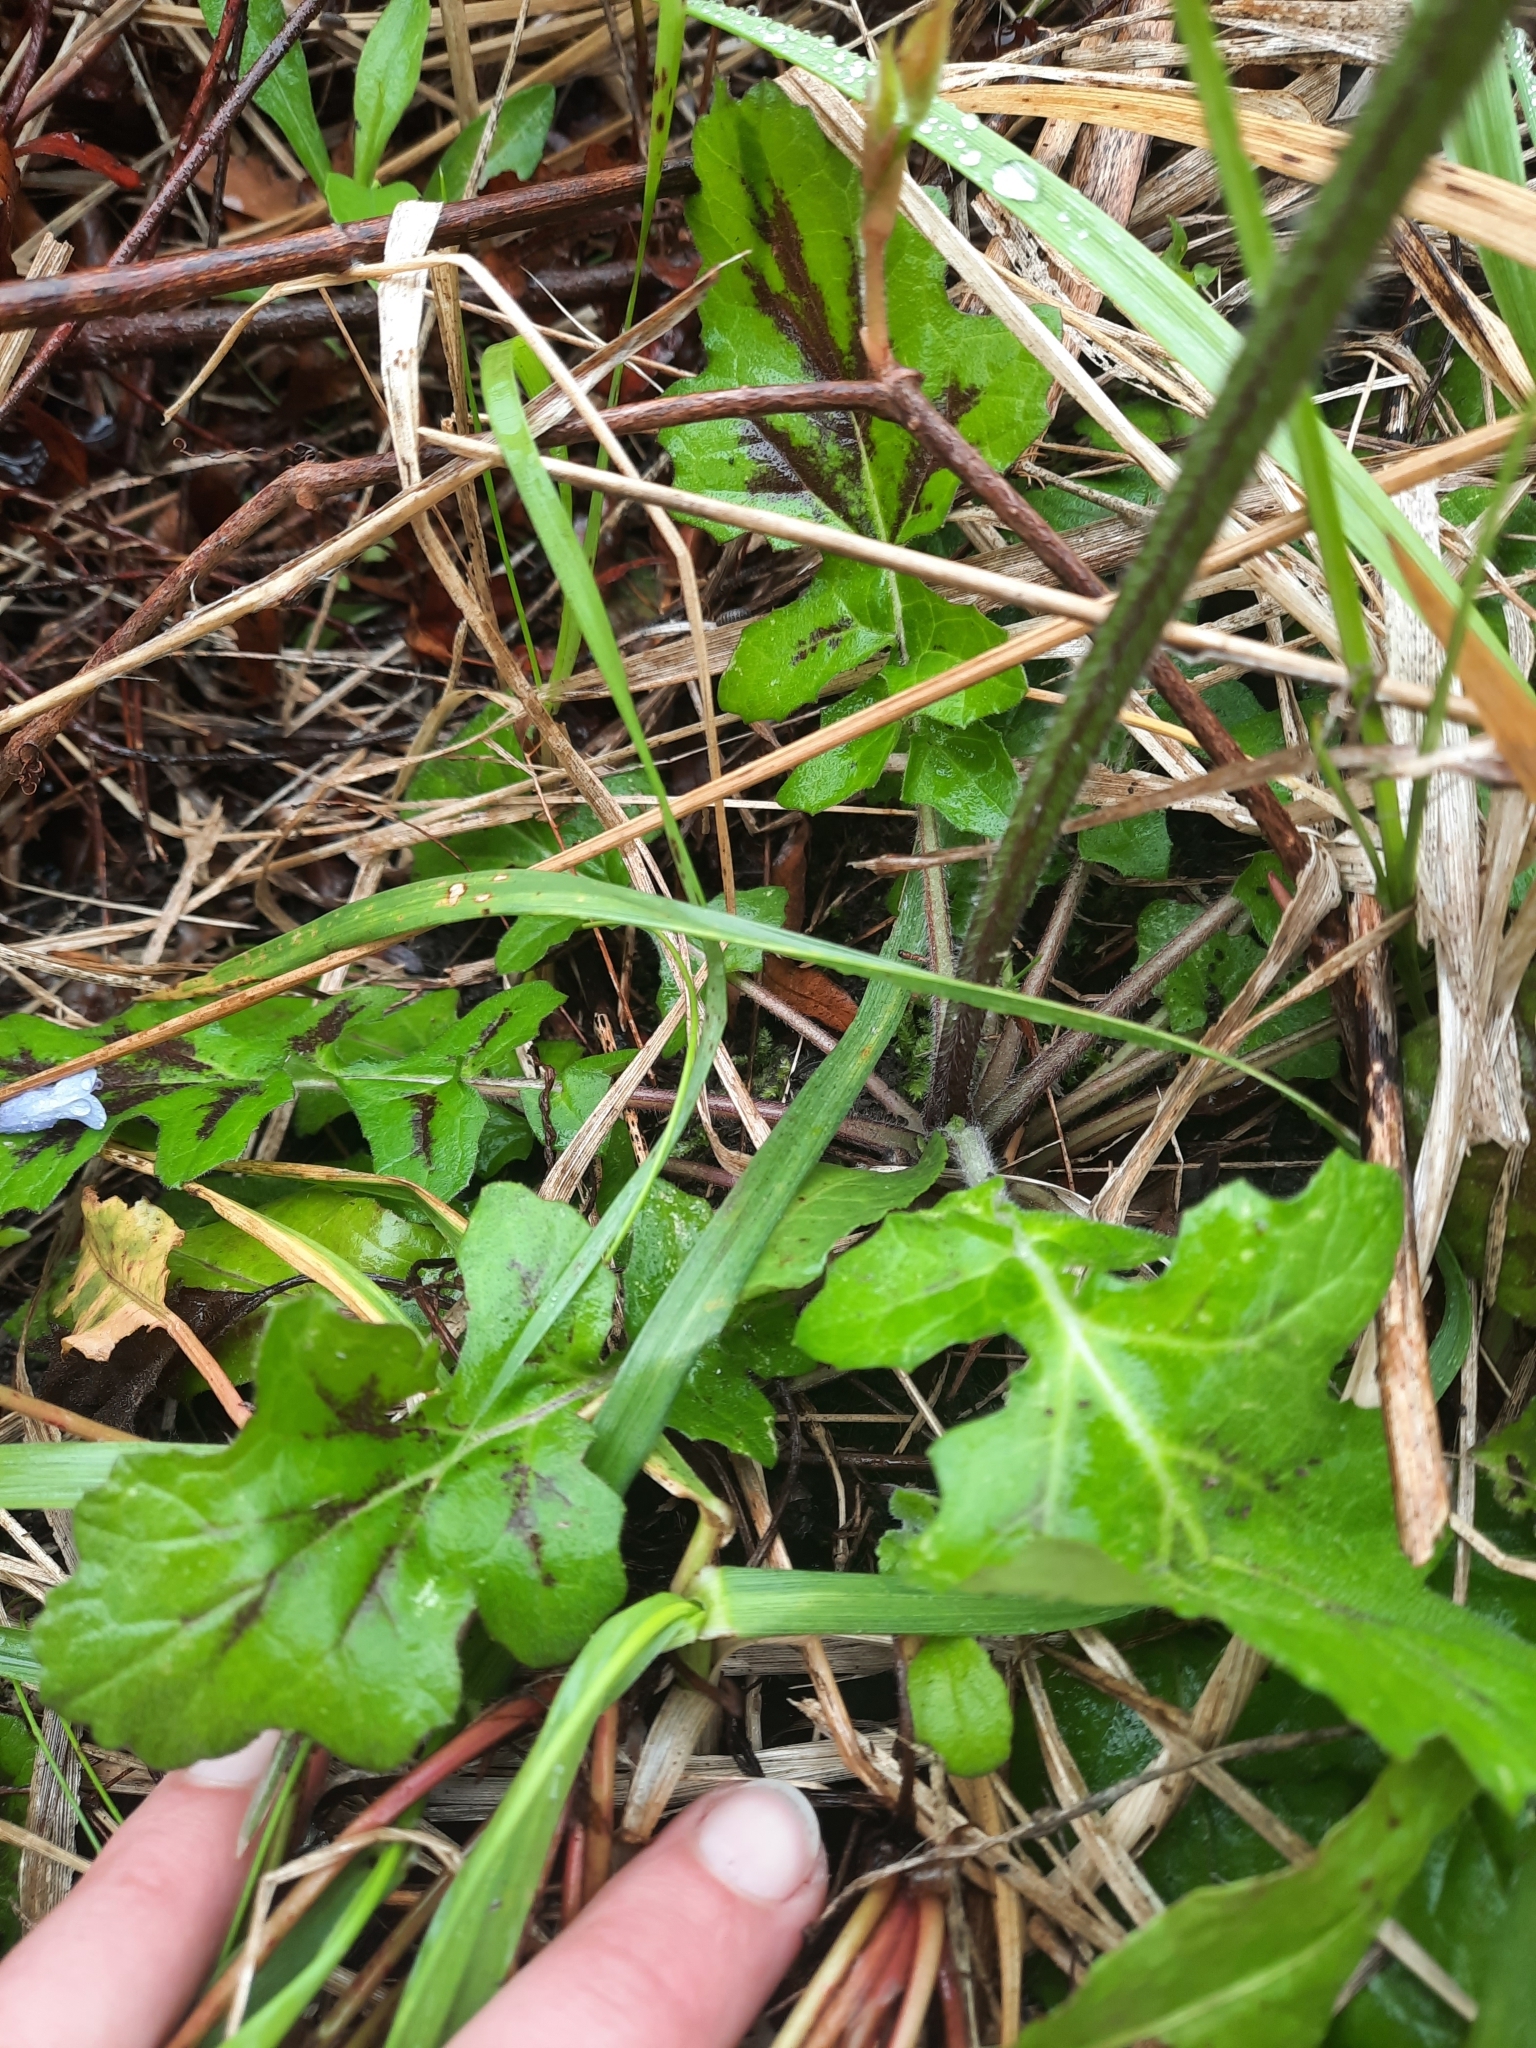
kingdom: Plantae
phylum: Tracheophyta
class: Magnoliopsida
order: Lamiales
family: Lamiaceae
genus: Salvia
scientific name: Salvia lyrata
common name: Cancerweed
